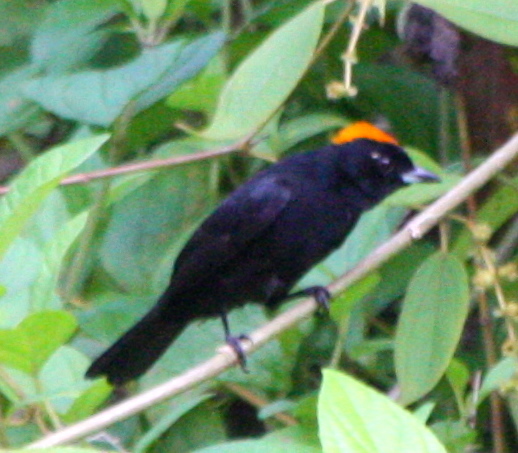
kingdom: Animalia
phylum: Chordata
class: Aves
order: Passeriformes
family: Thraupidae
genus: Tachyphonus
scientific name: Tachyphonus delatrii
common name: Tawny-crested tanager
